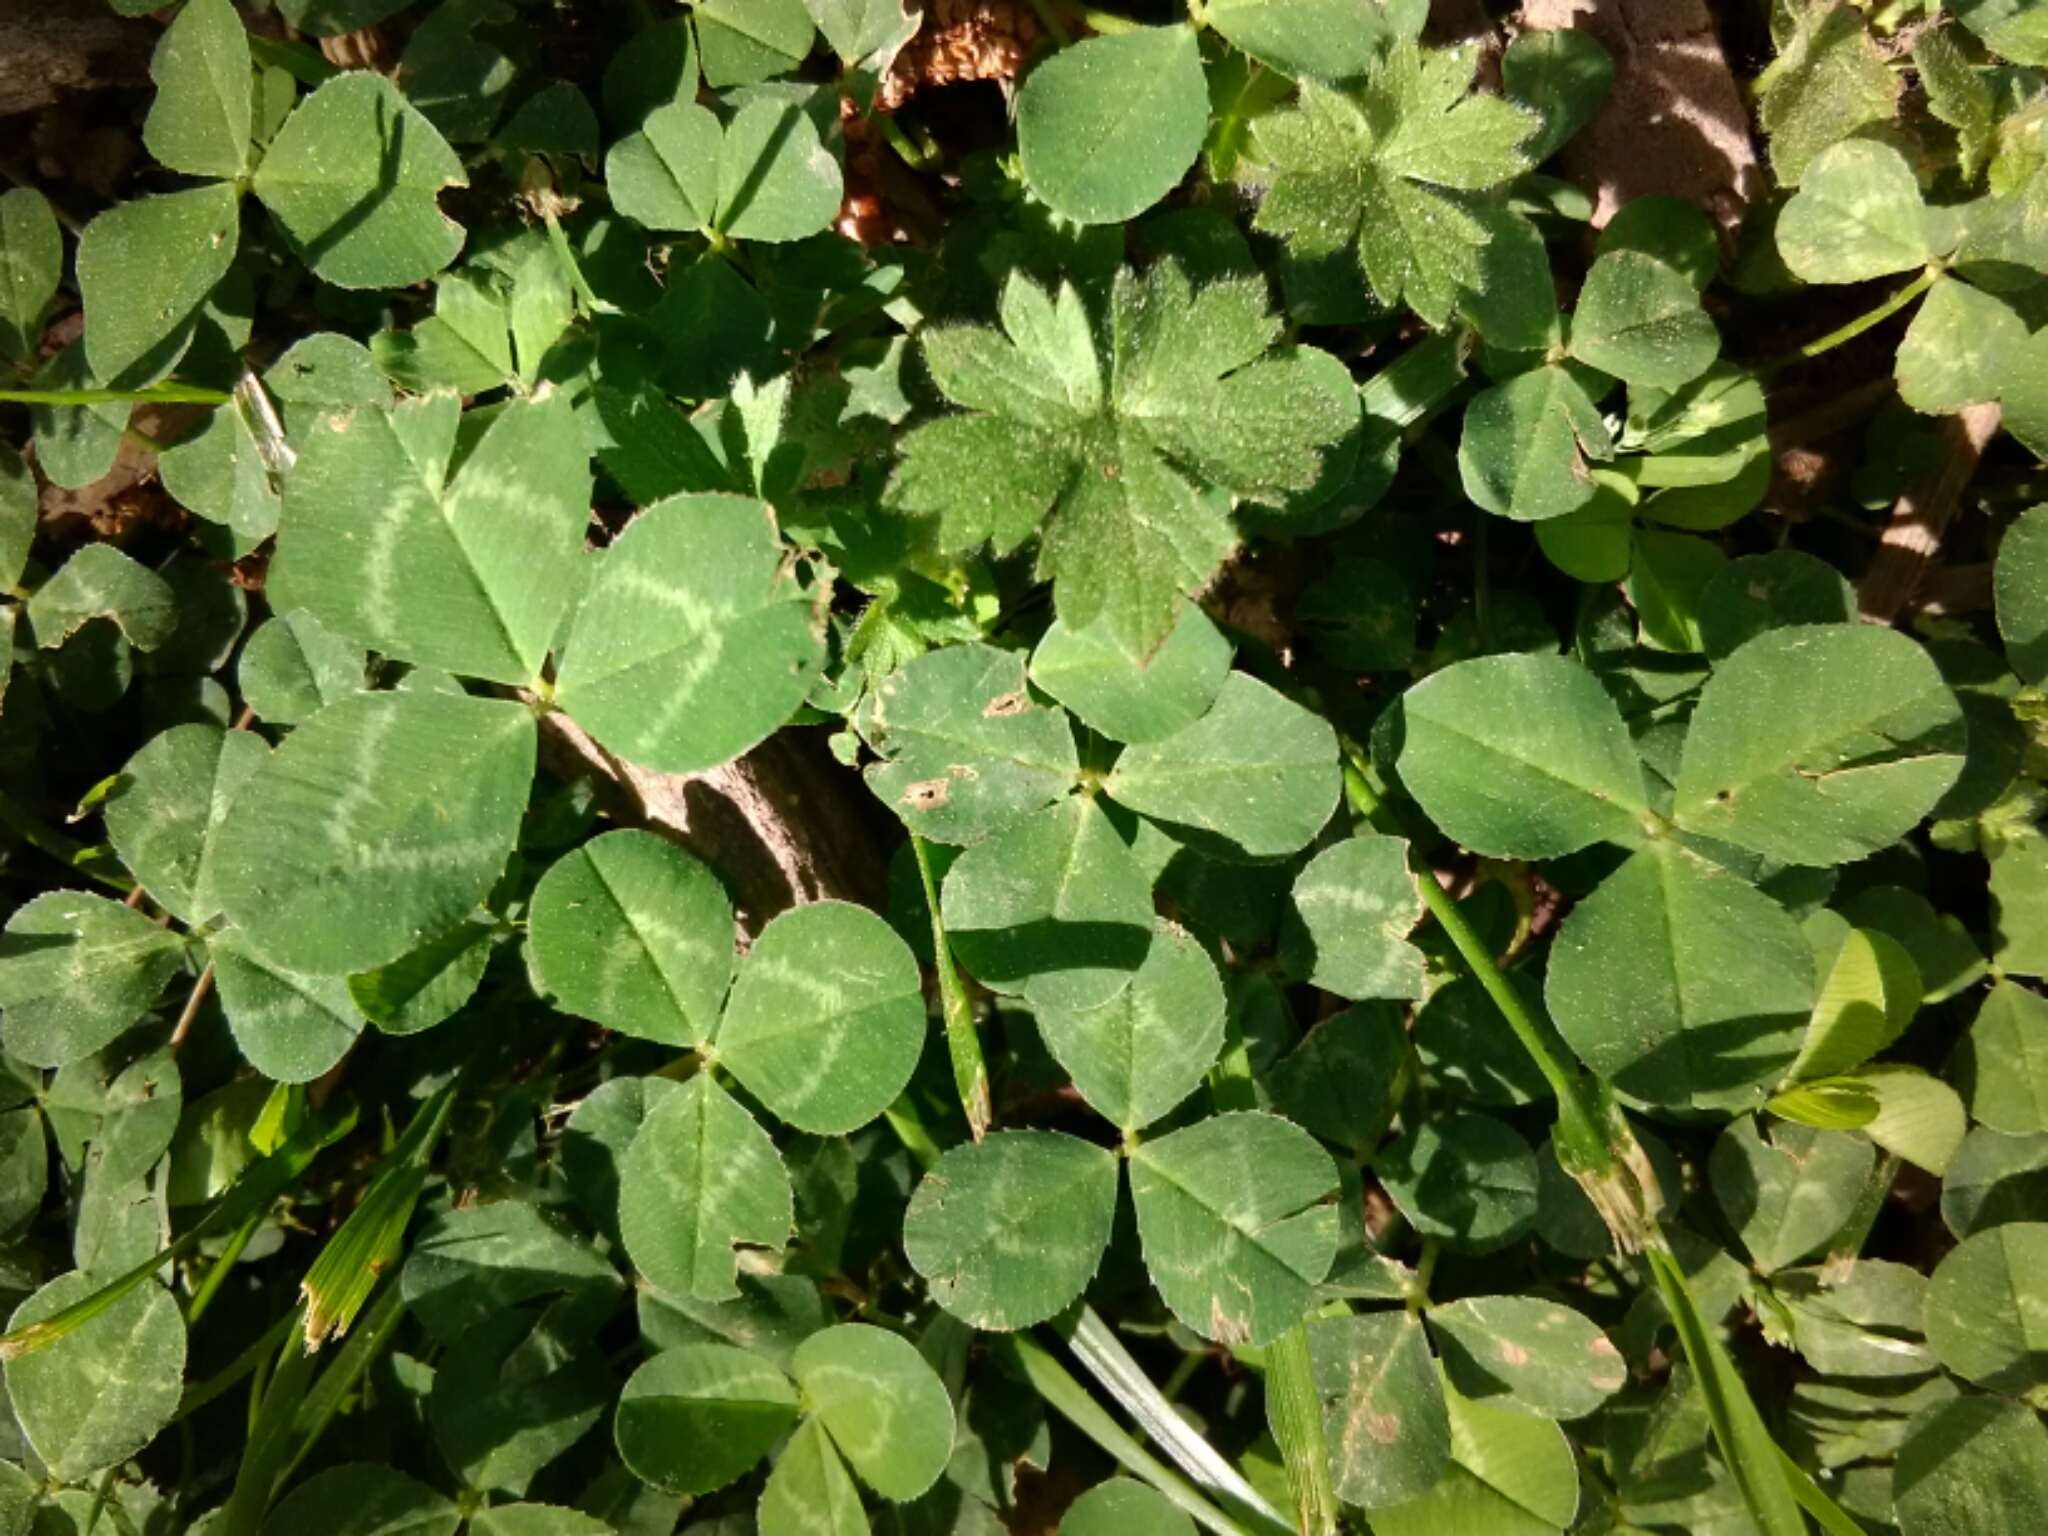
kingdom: Plantae
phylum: Tracheophyta
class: Magnoliopsida
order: Fabales
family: Fabaceae
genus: Trifolium
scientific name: Trifolium repens
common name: White clover
